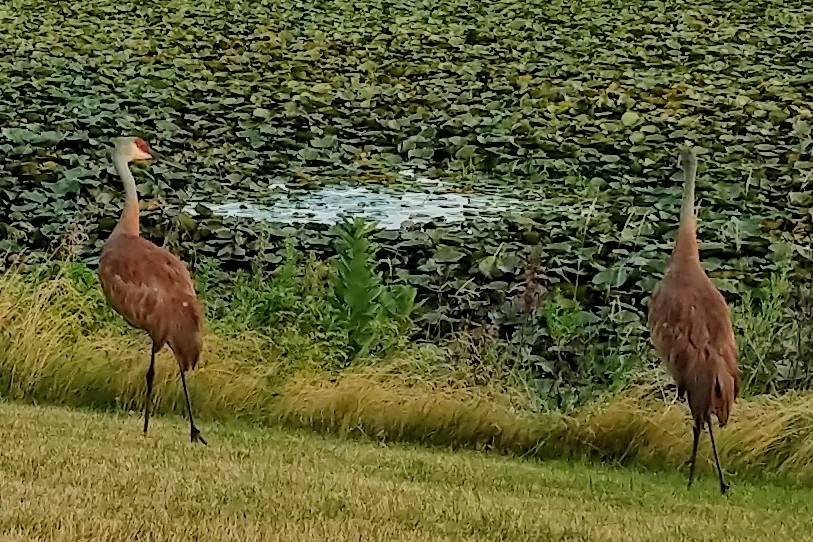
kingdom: Animalia
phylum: Chordata
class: Aves
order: Gruiformes
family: Gruidae
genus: Grus
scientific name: Grus canadensis
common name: Sandhill crane
